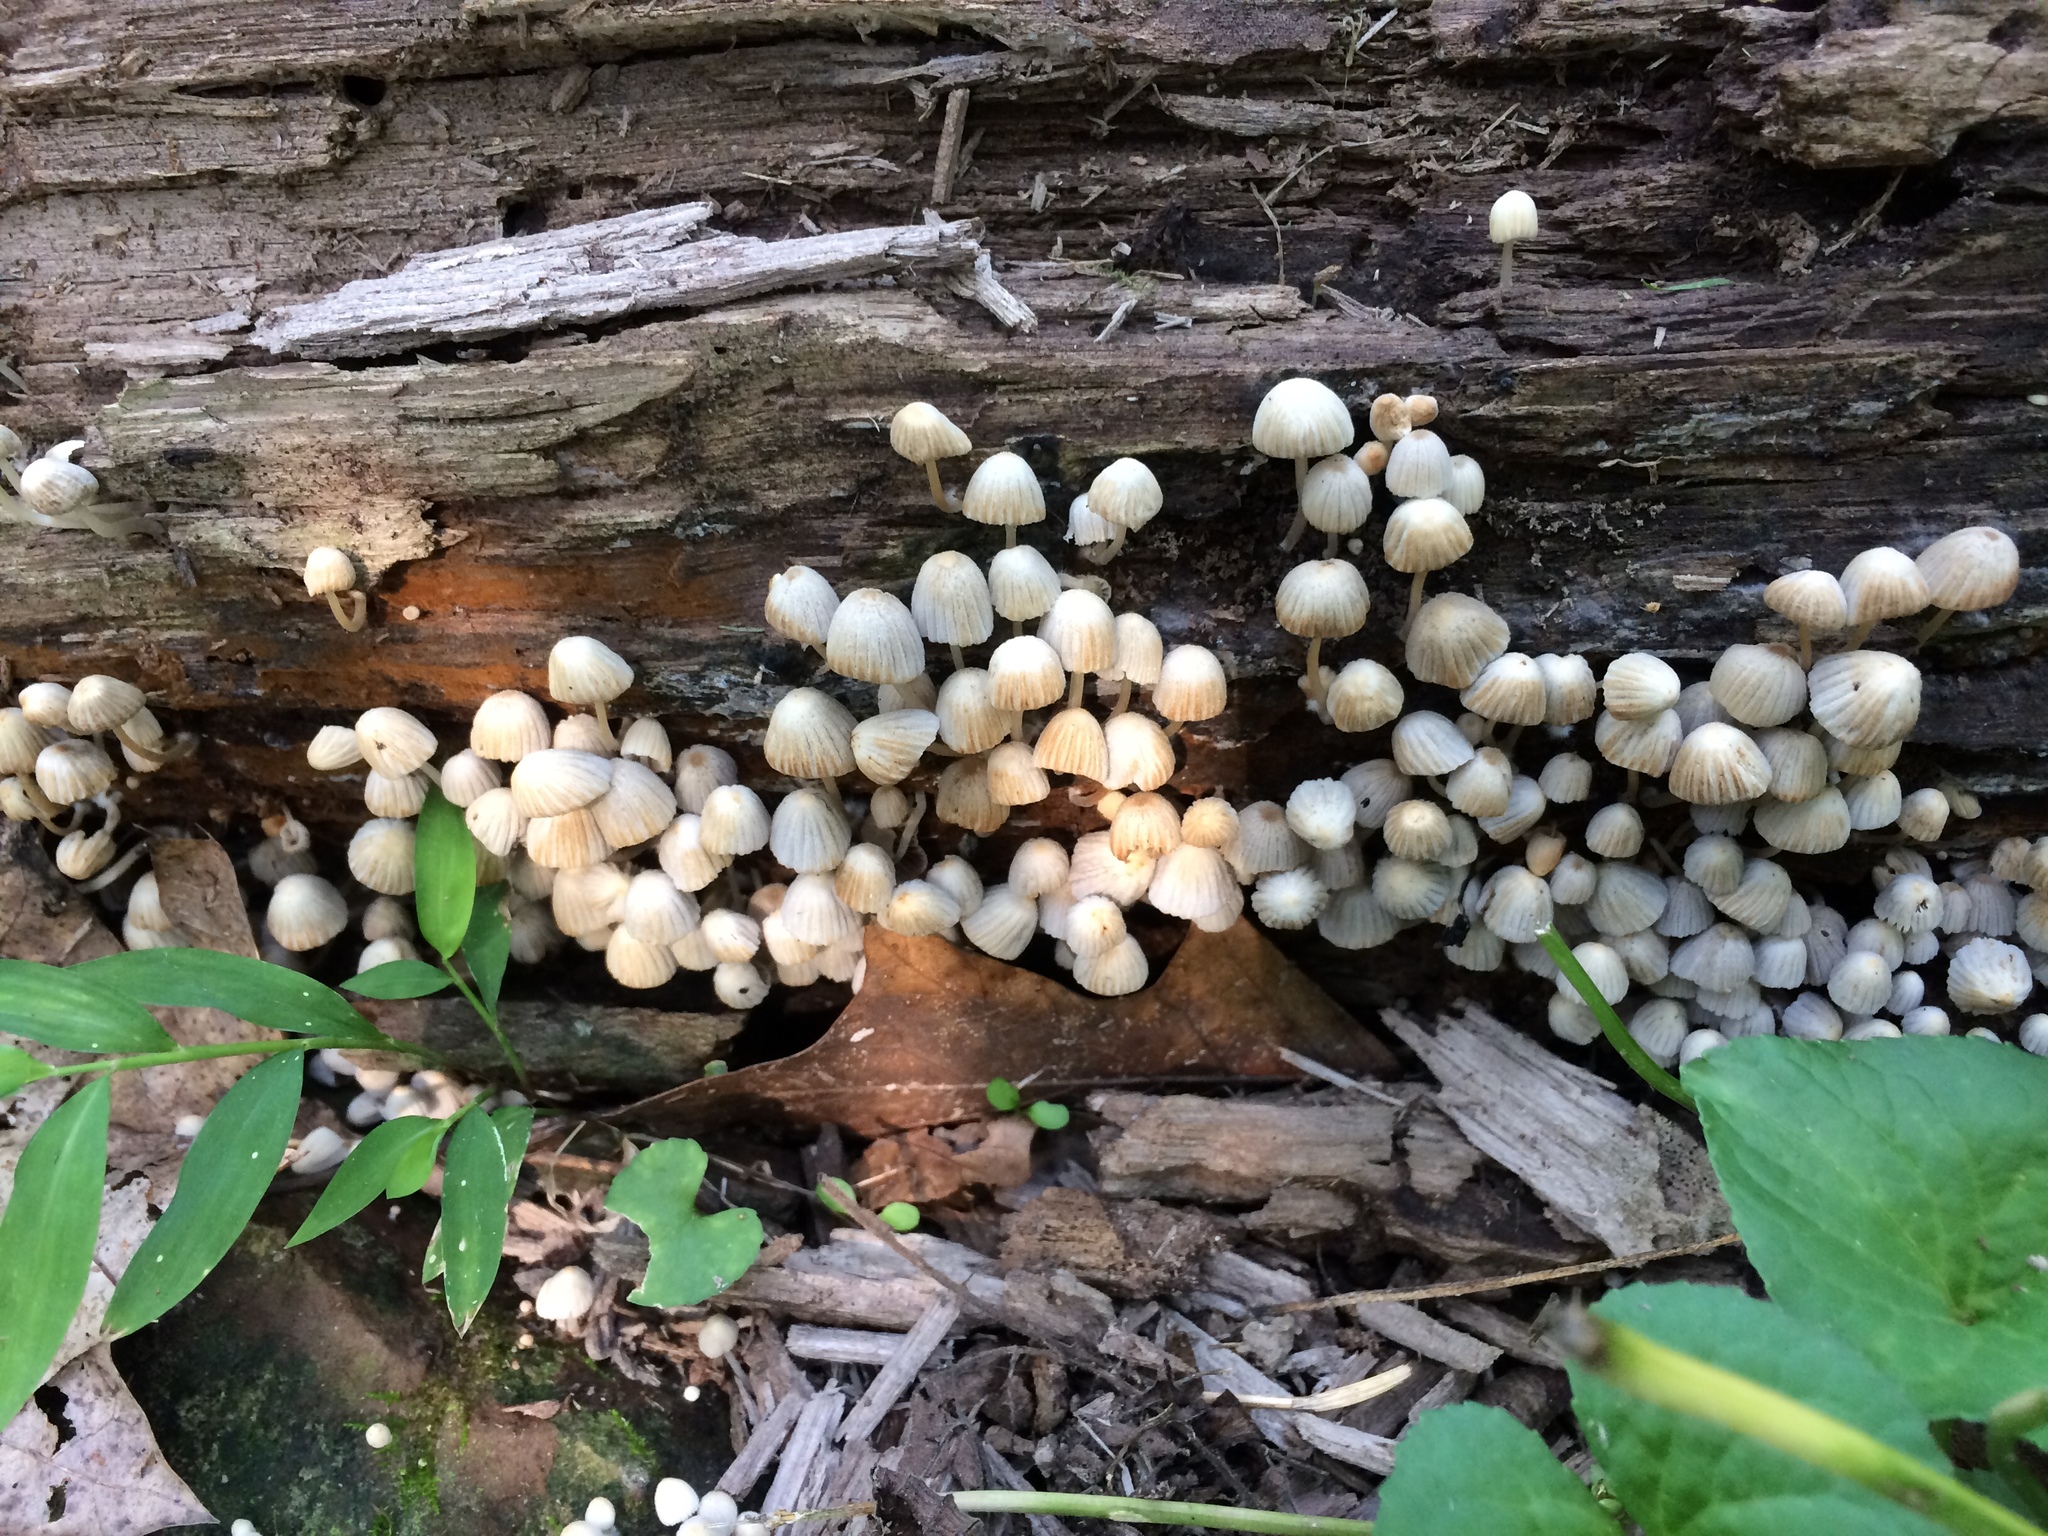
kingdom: Fungi
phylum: Basidiomycota
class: Agaricomycetes
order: Agaricales
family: Psathyrellaceae
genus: Coprinellus
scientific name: Coprinellus disseminatus
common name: Fairies' bonnets
